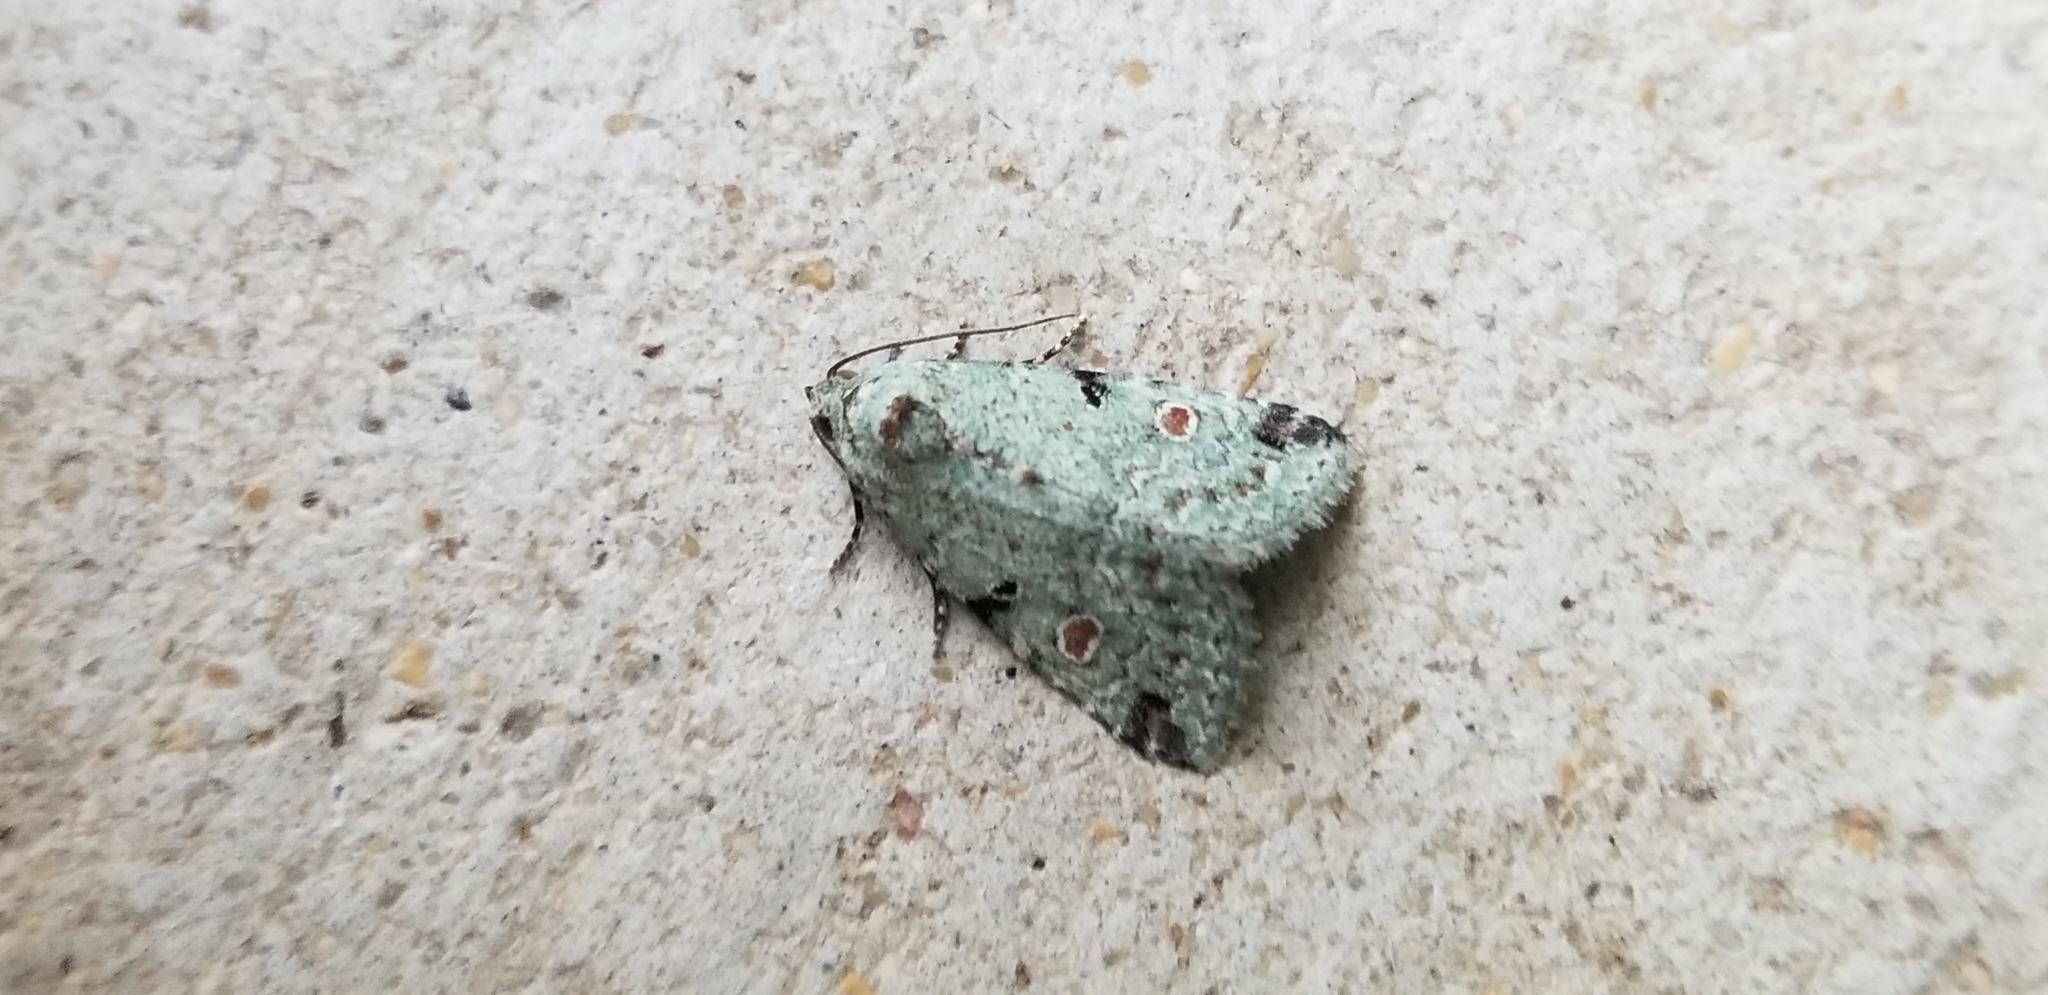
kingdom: Animalia
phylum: Arthropoda
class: Insecta
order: Lepidoptera
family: Noctuidae
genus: Maliattha
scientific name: Maliattha concinnimacula
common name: Red-spotted glyph
